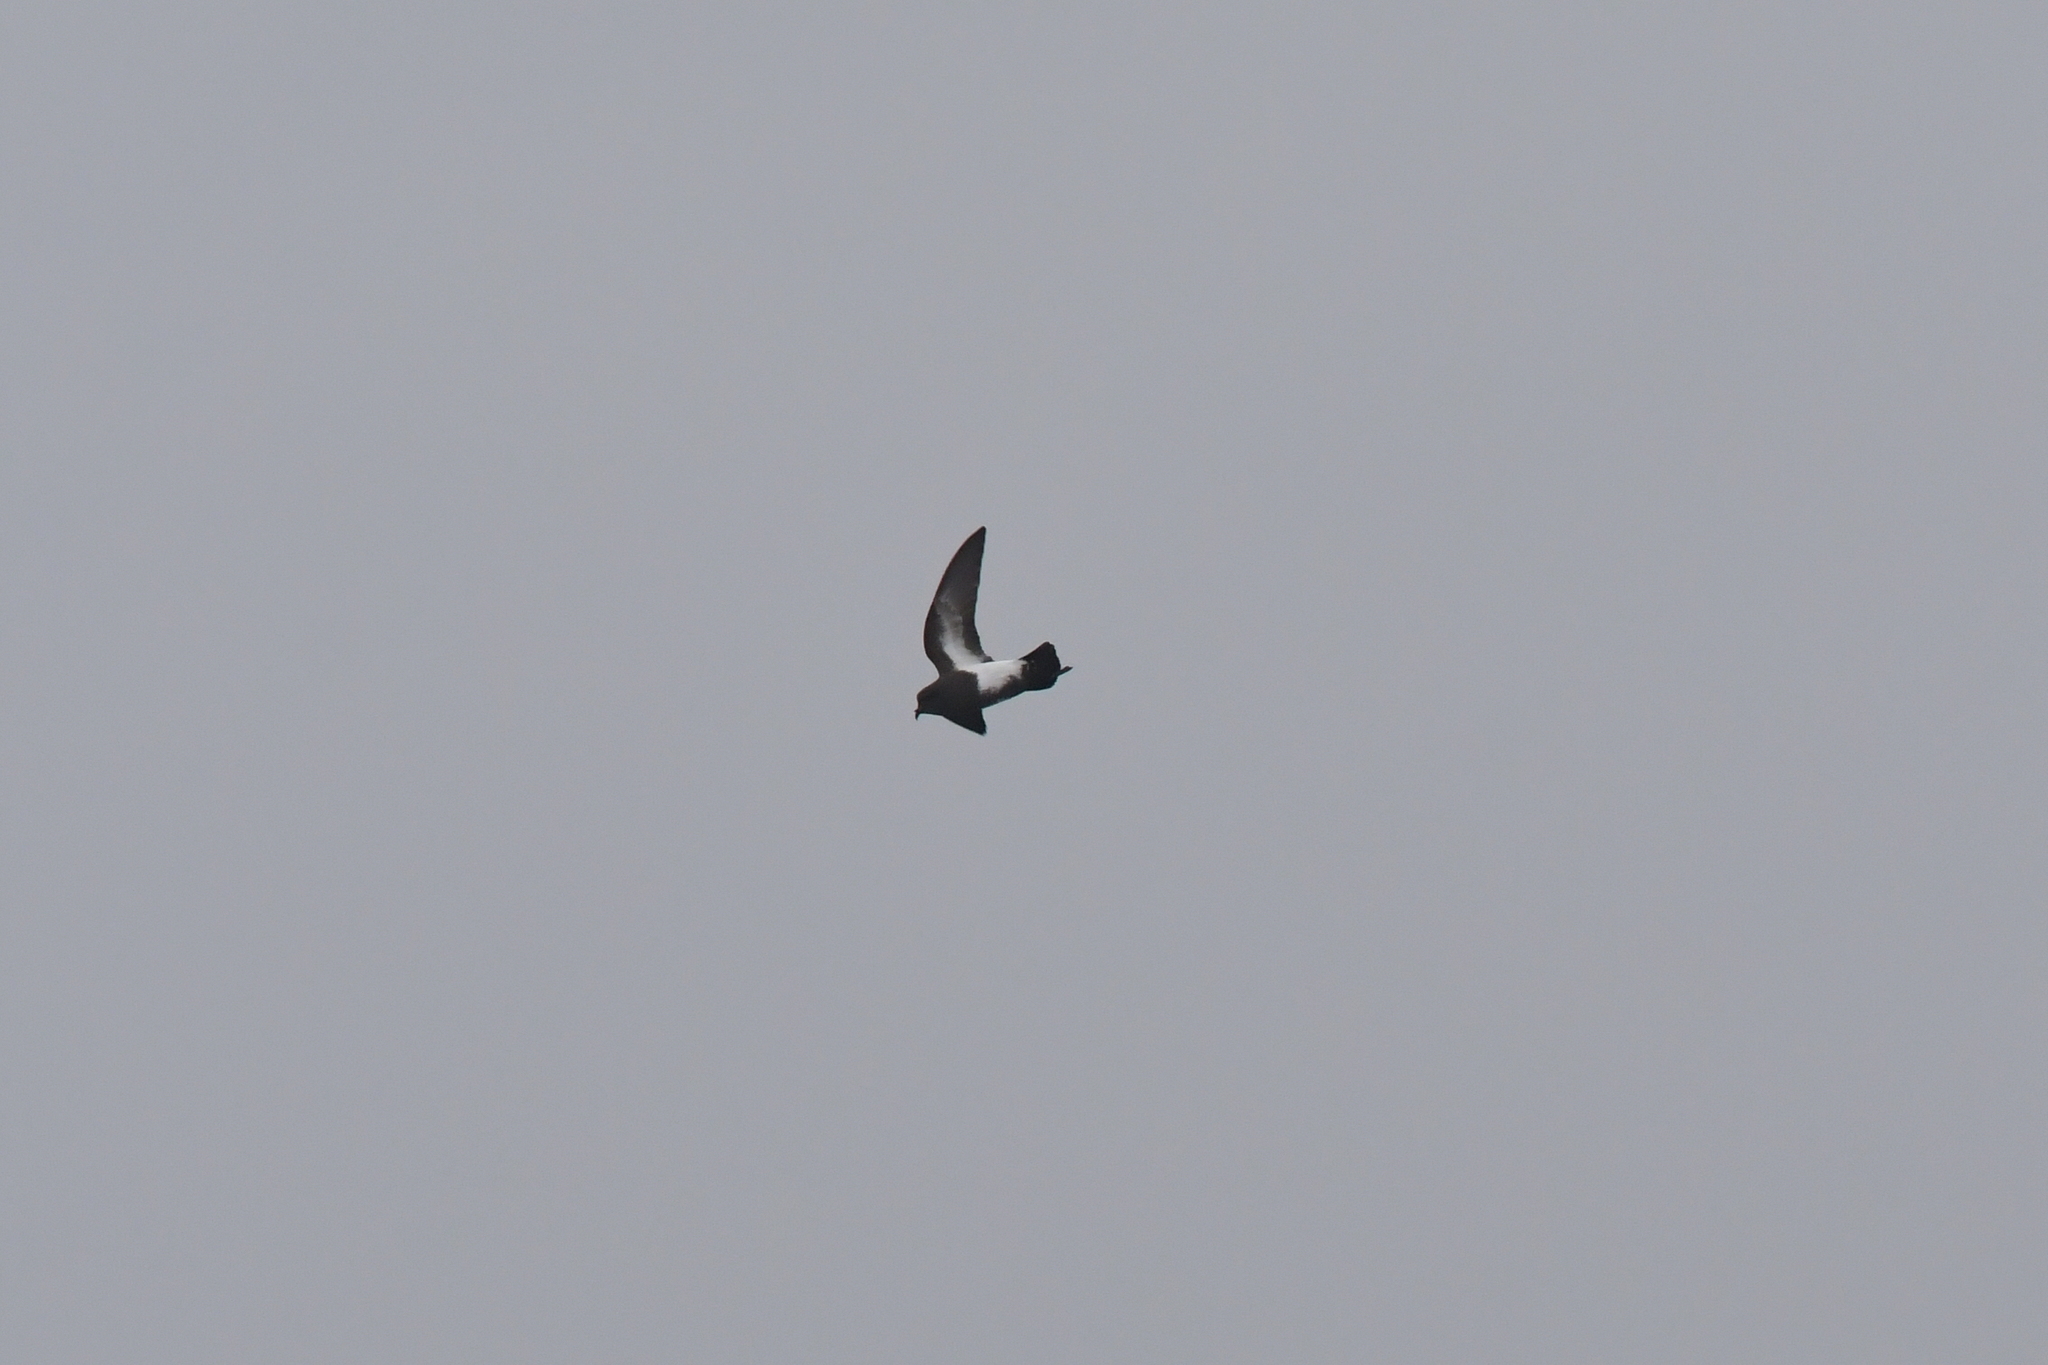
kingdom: Animalia
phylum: Chordata
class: Aves
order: Procellariiformes
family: Hydrobatidae
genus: Fregetta
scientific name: Fregetta tropica
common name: Black-bellied storm-petrel
